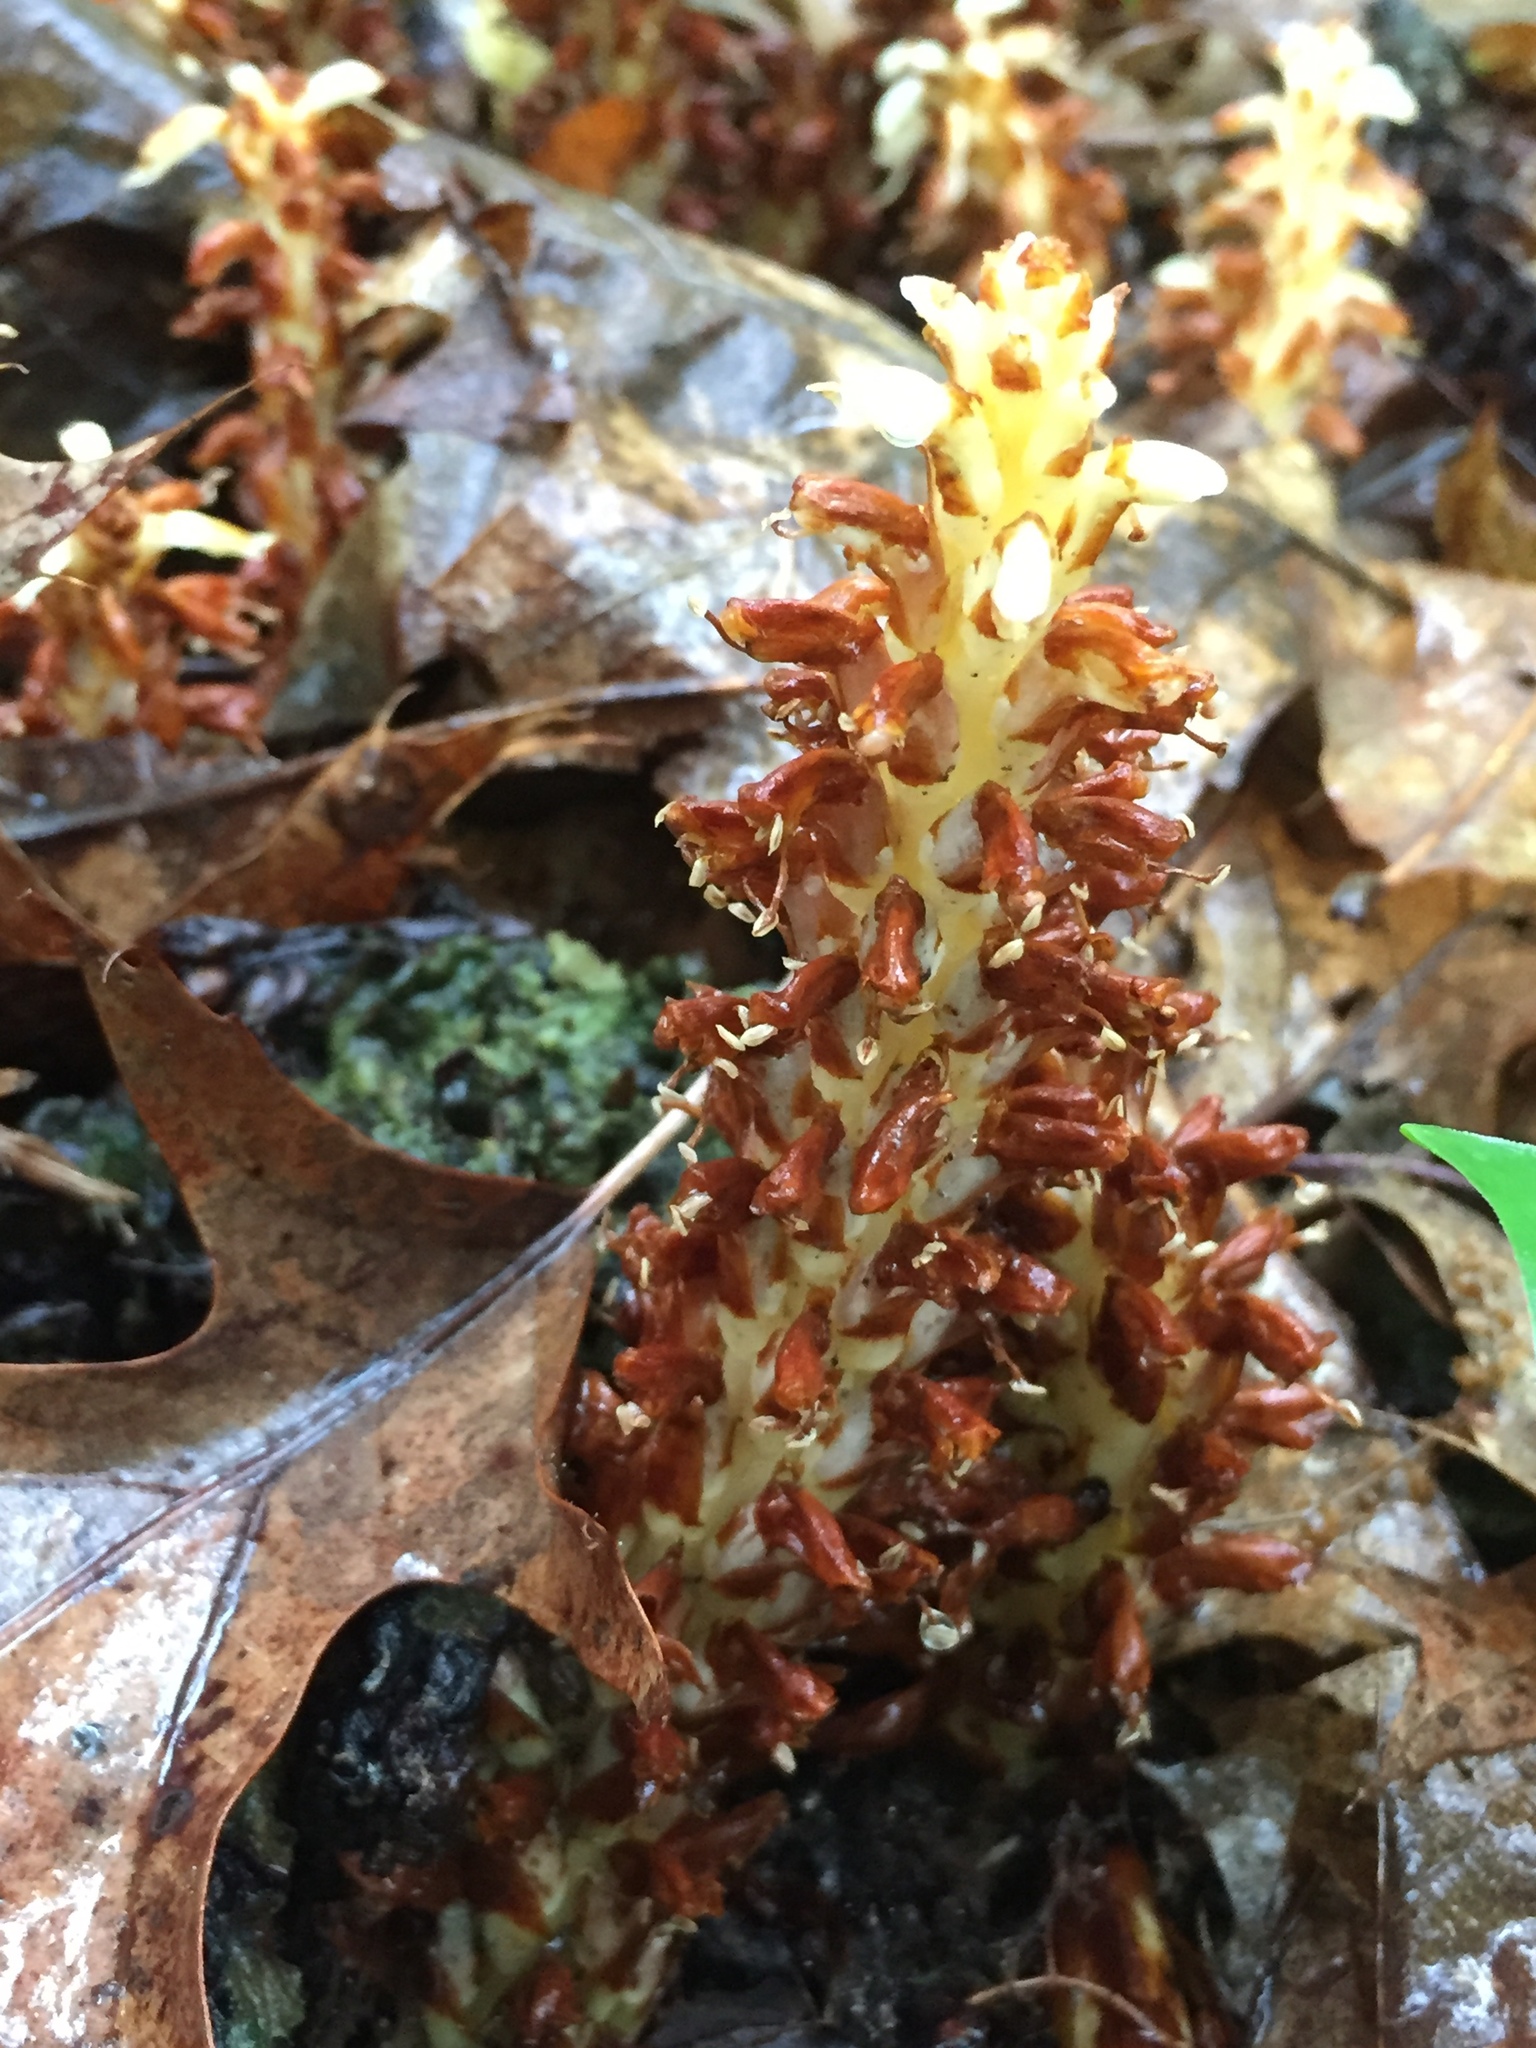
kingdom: Plantae
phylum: Tracheophyta
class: Magnoliopsida
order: Lamiales
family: Orobanchaceae
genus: Conopholis
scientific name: Conopholis americana
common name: American cancer-root
